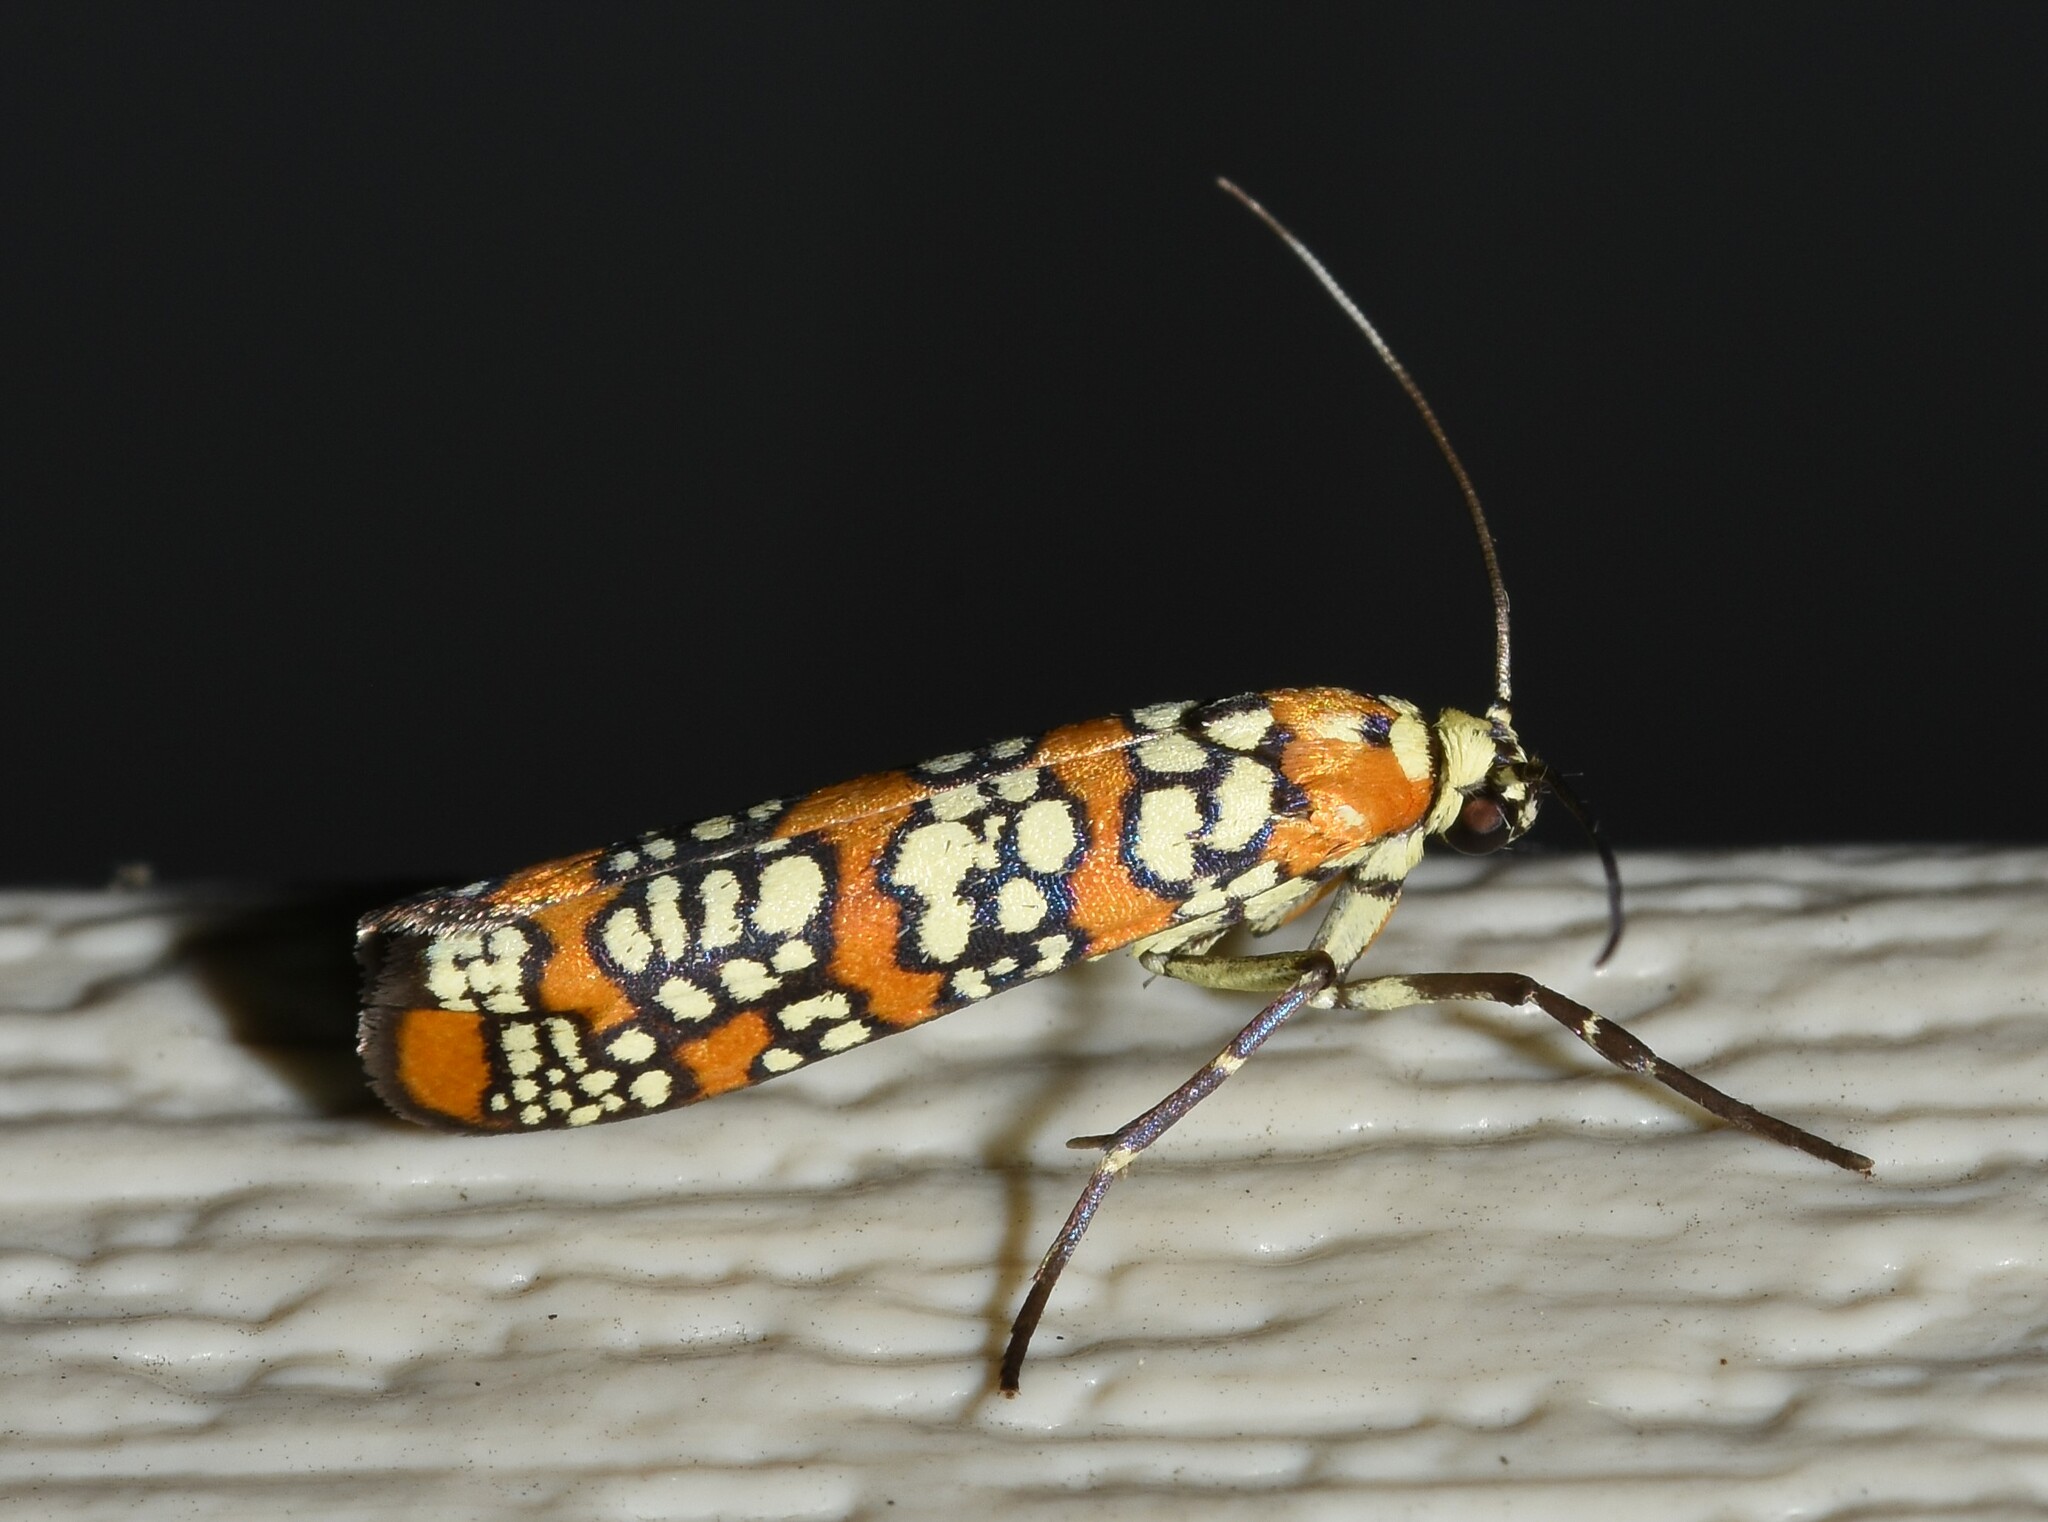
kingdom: Animalia
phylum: Arthropoda
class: Insecta
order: Lepidoptera
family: Attevidae
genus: Atteva
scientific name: Atteva punctella
